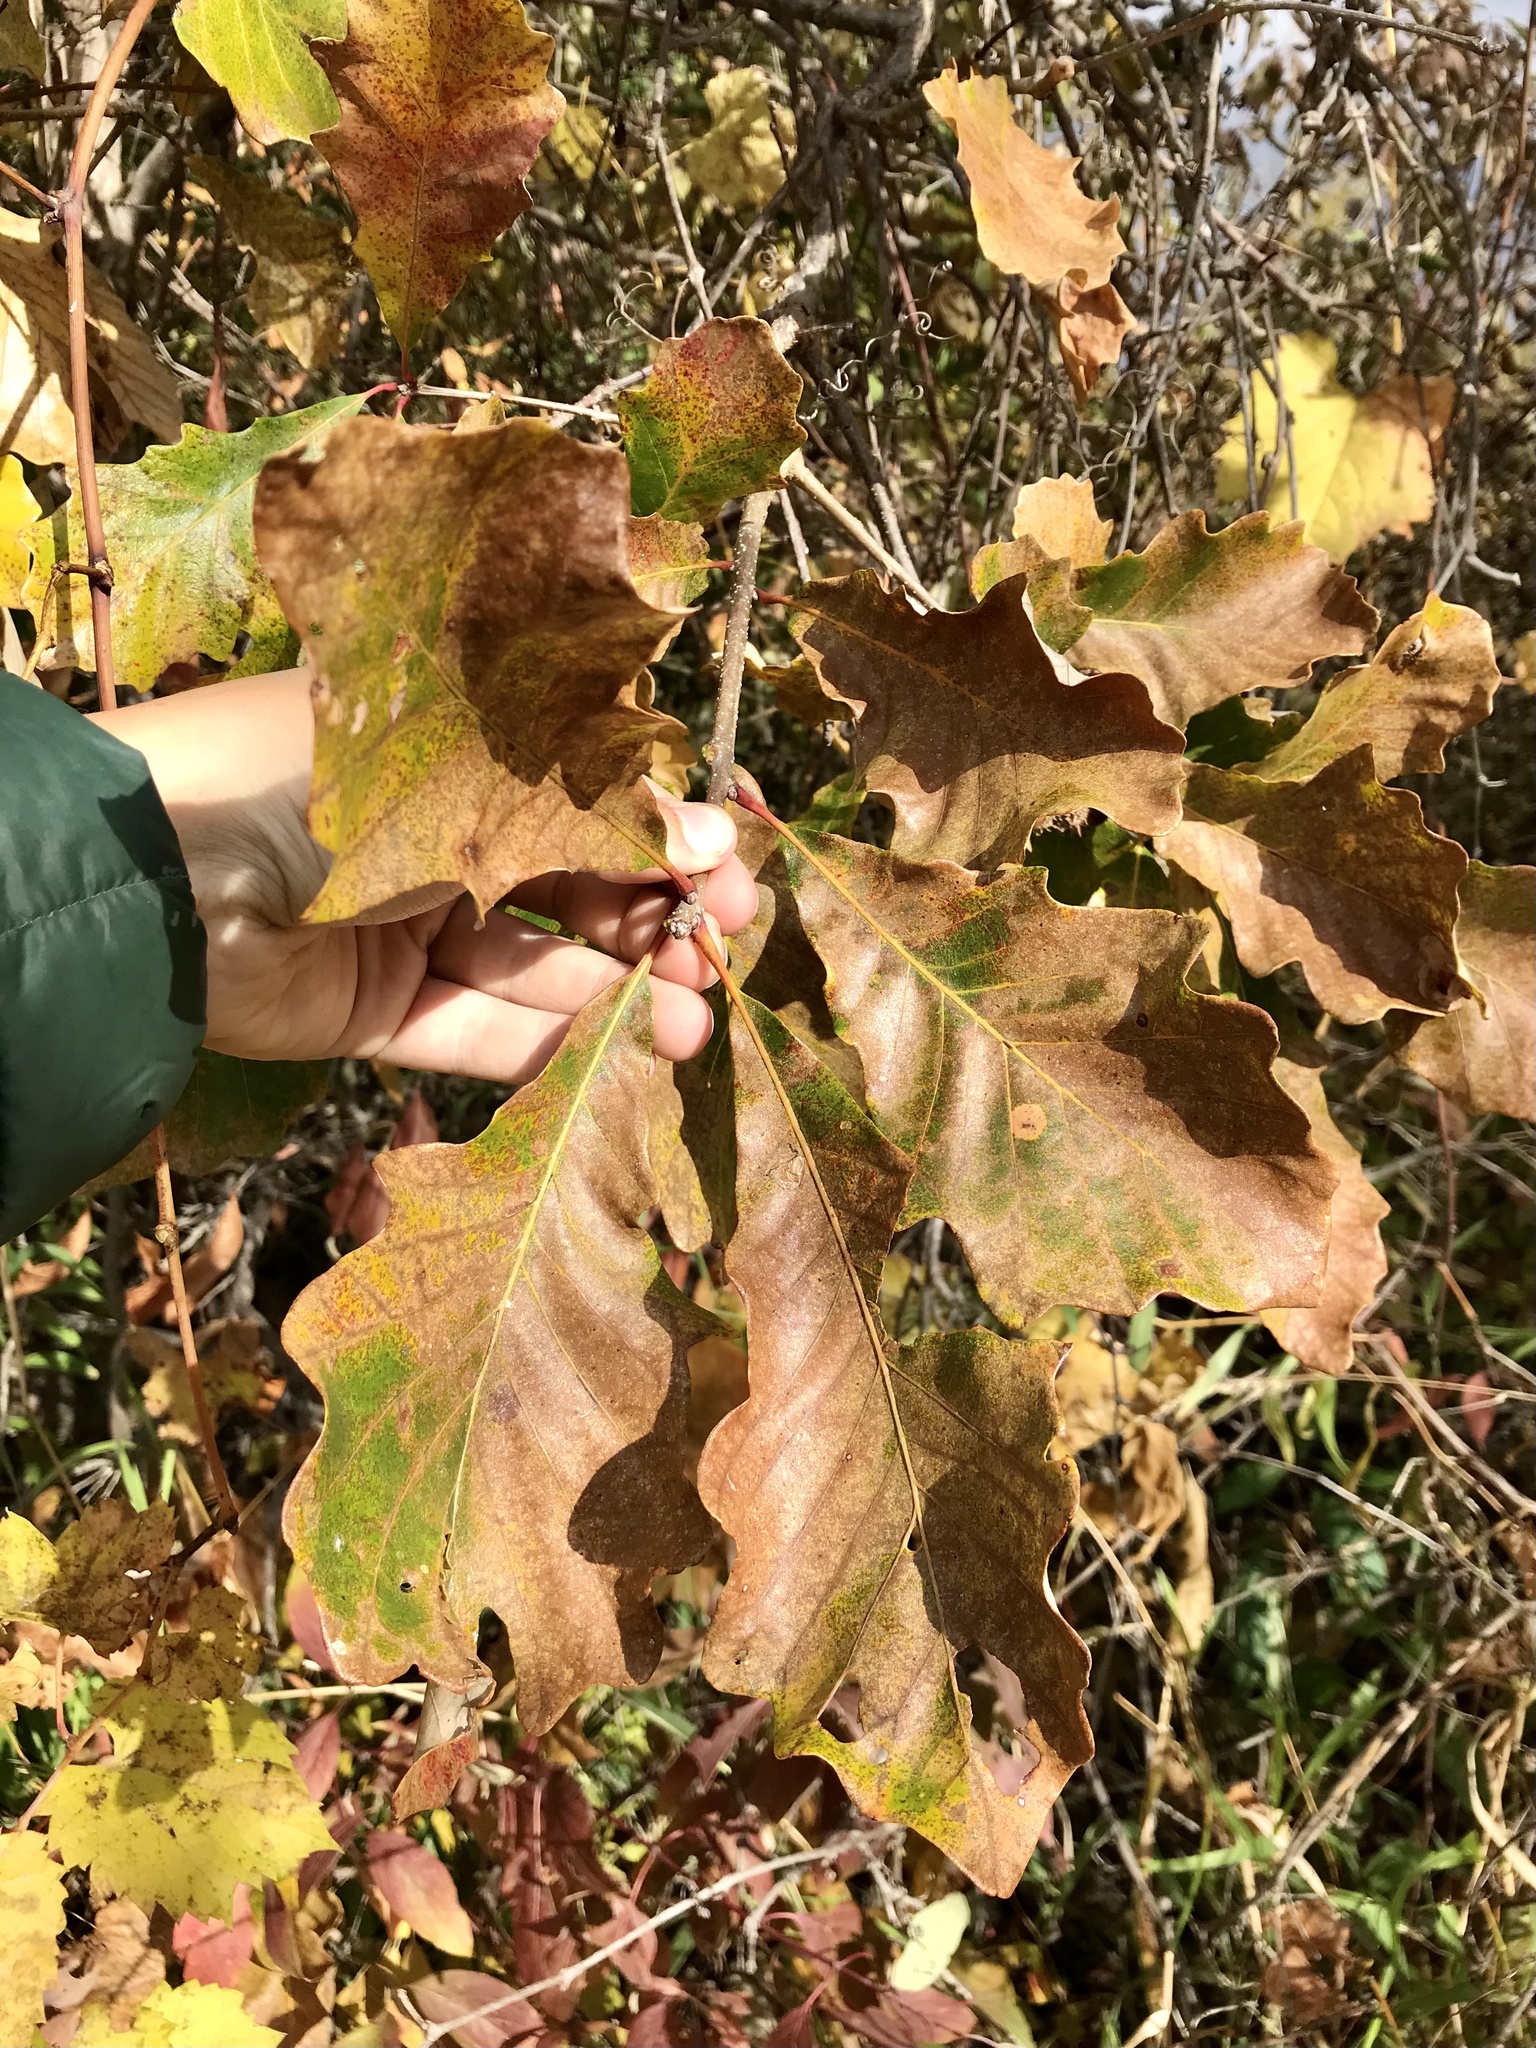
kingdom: Plantae
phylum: Tracheophyta
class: Magnoliopsida
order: Fagales
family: Fagaceae
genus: Quercus
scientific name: Quercus bicolor
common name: Swamp white oak
